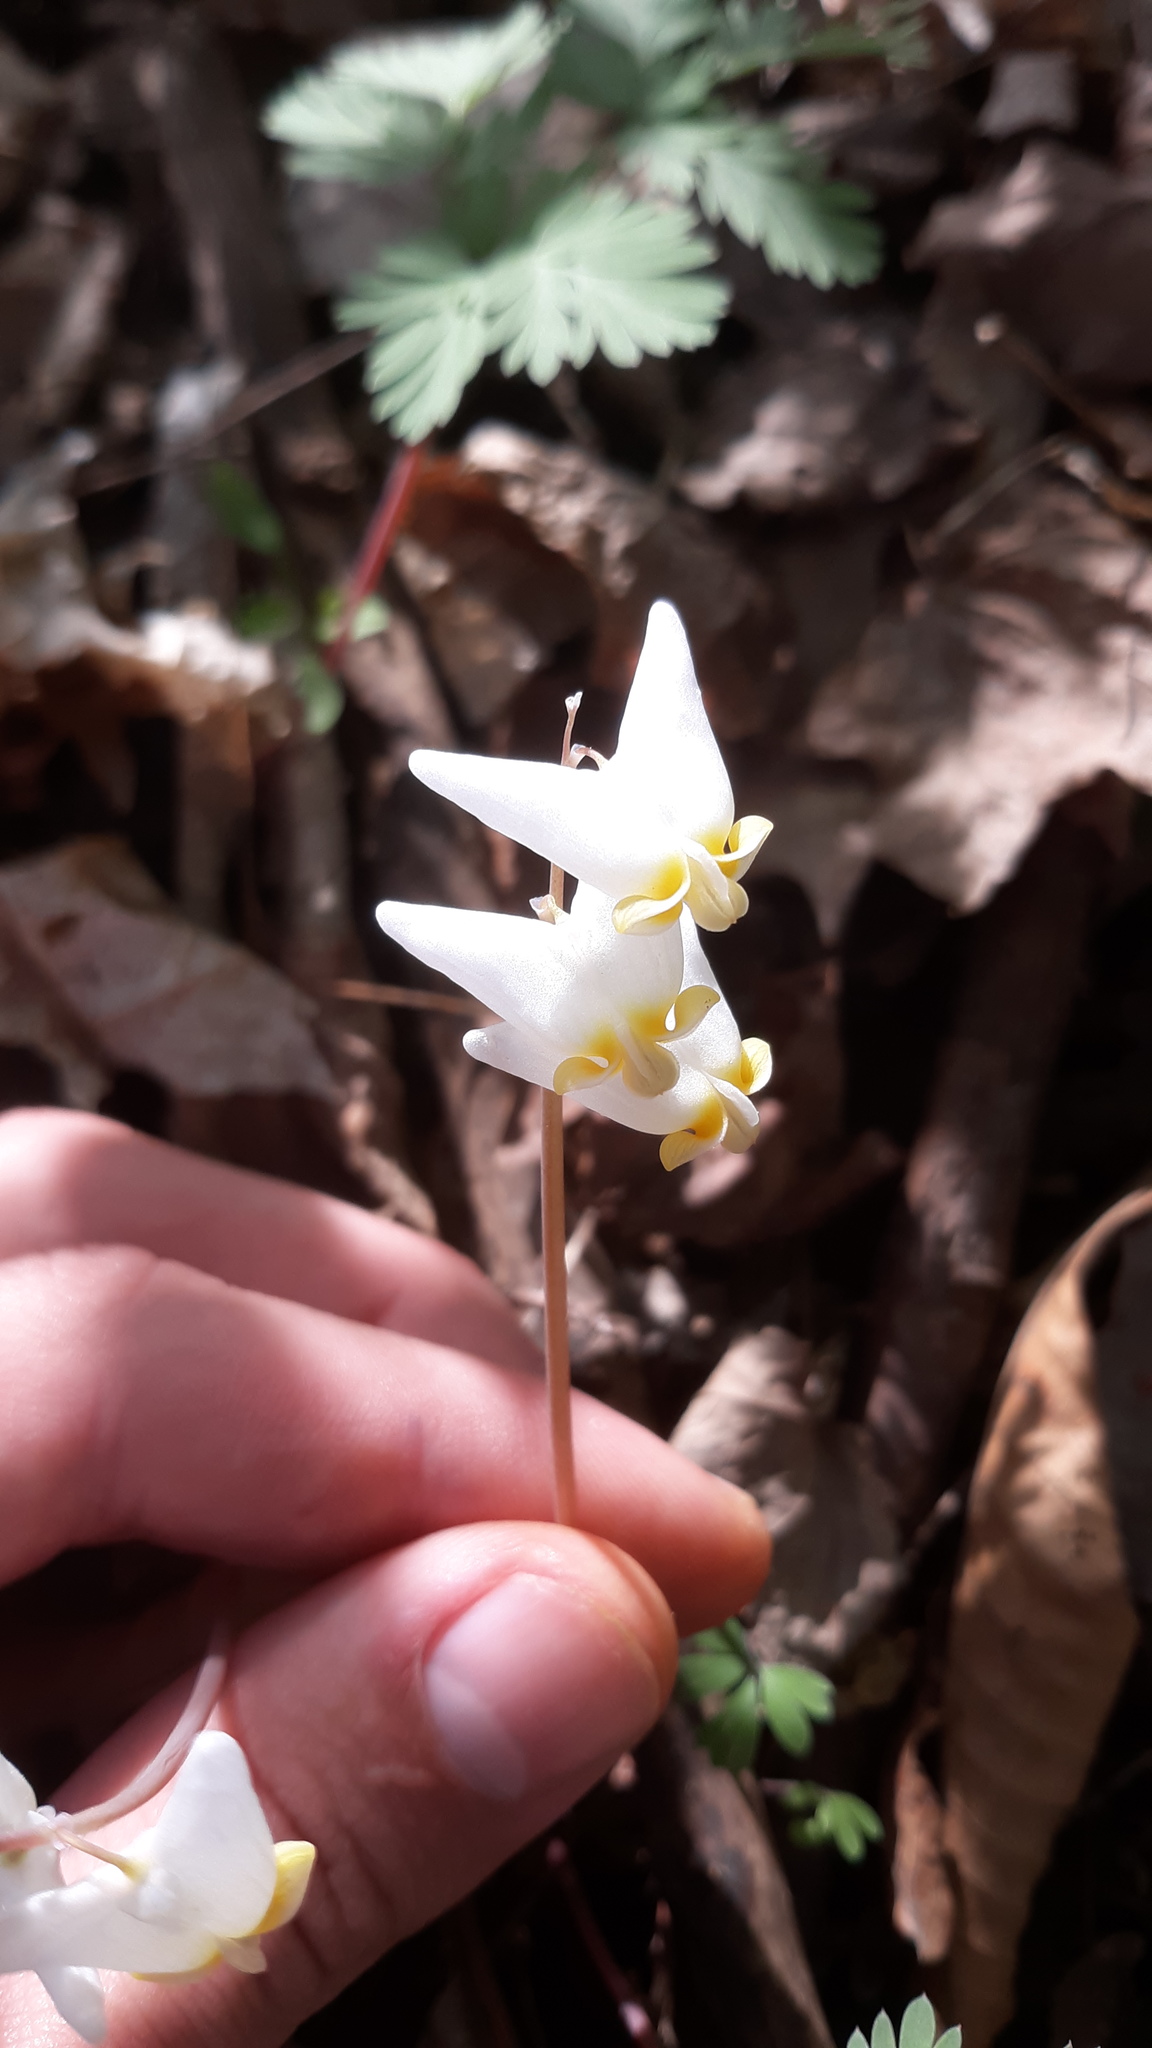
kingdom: Plantae
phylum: Tracheophyta
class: Magnoliopsida
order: Ranunculales
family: Papaveraceae
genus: Dicentra
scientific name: Dicentra cucullaria
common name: Dutchman's breeches
